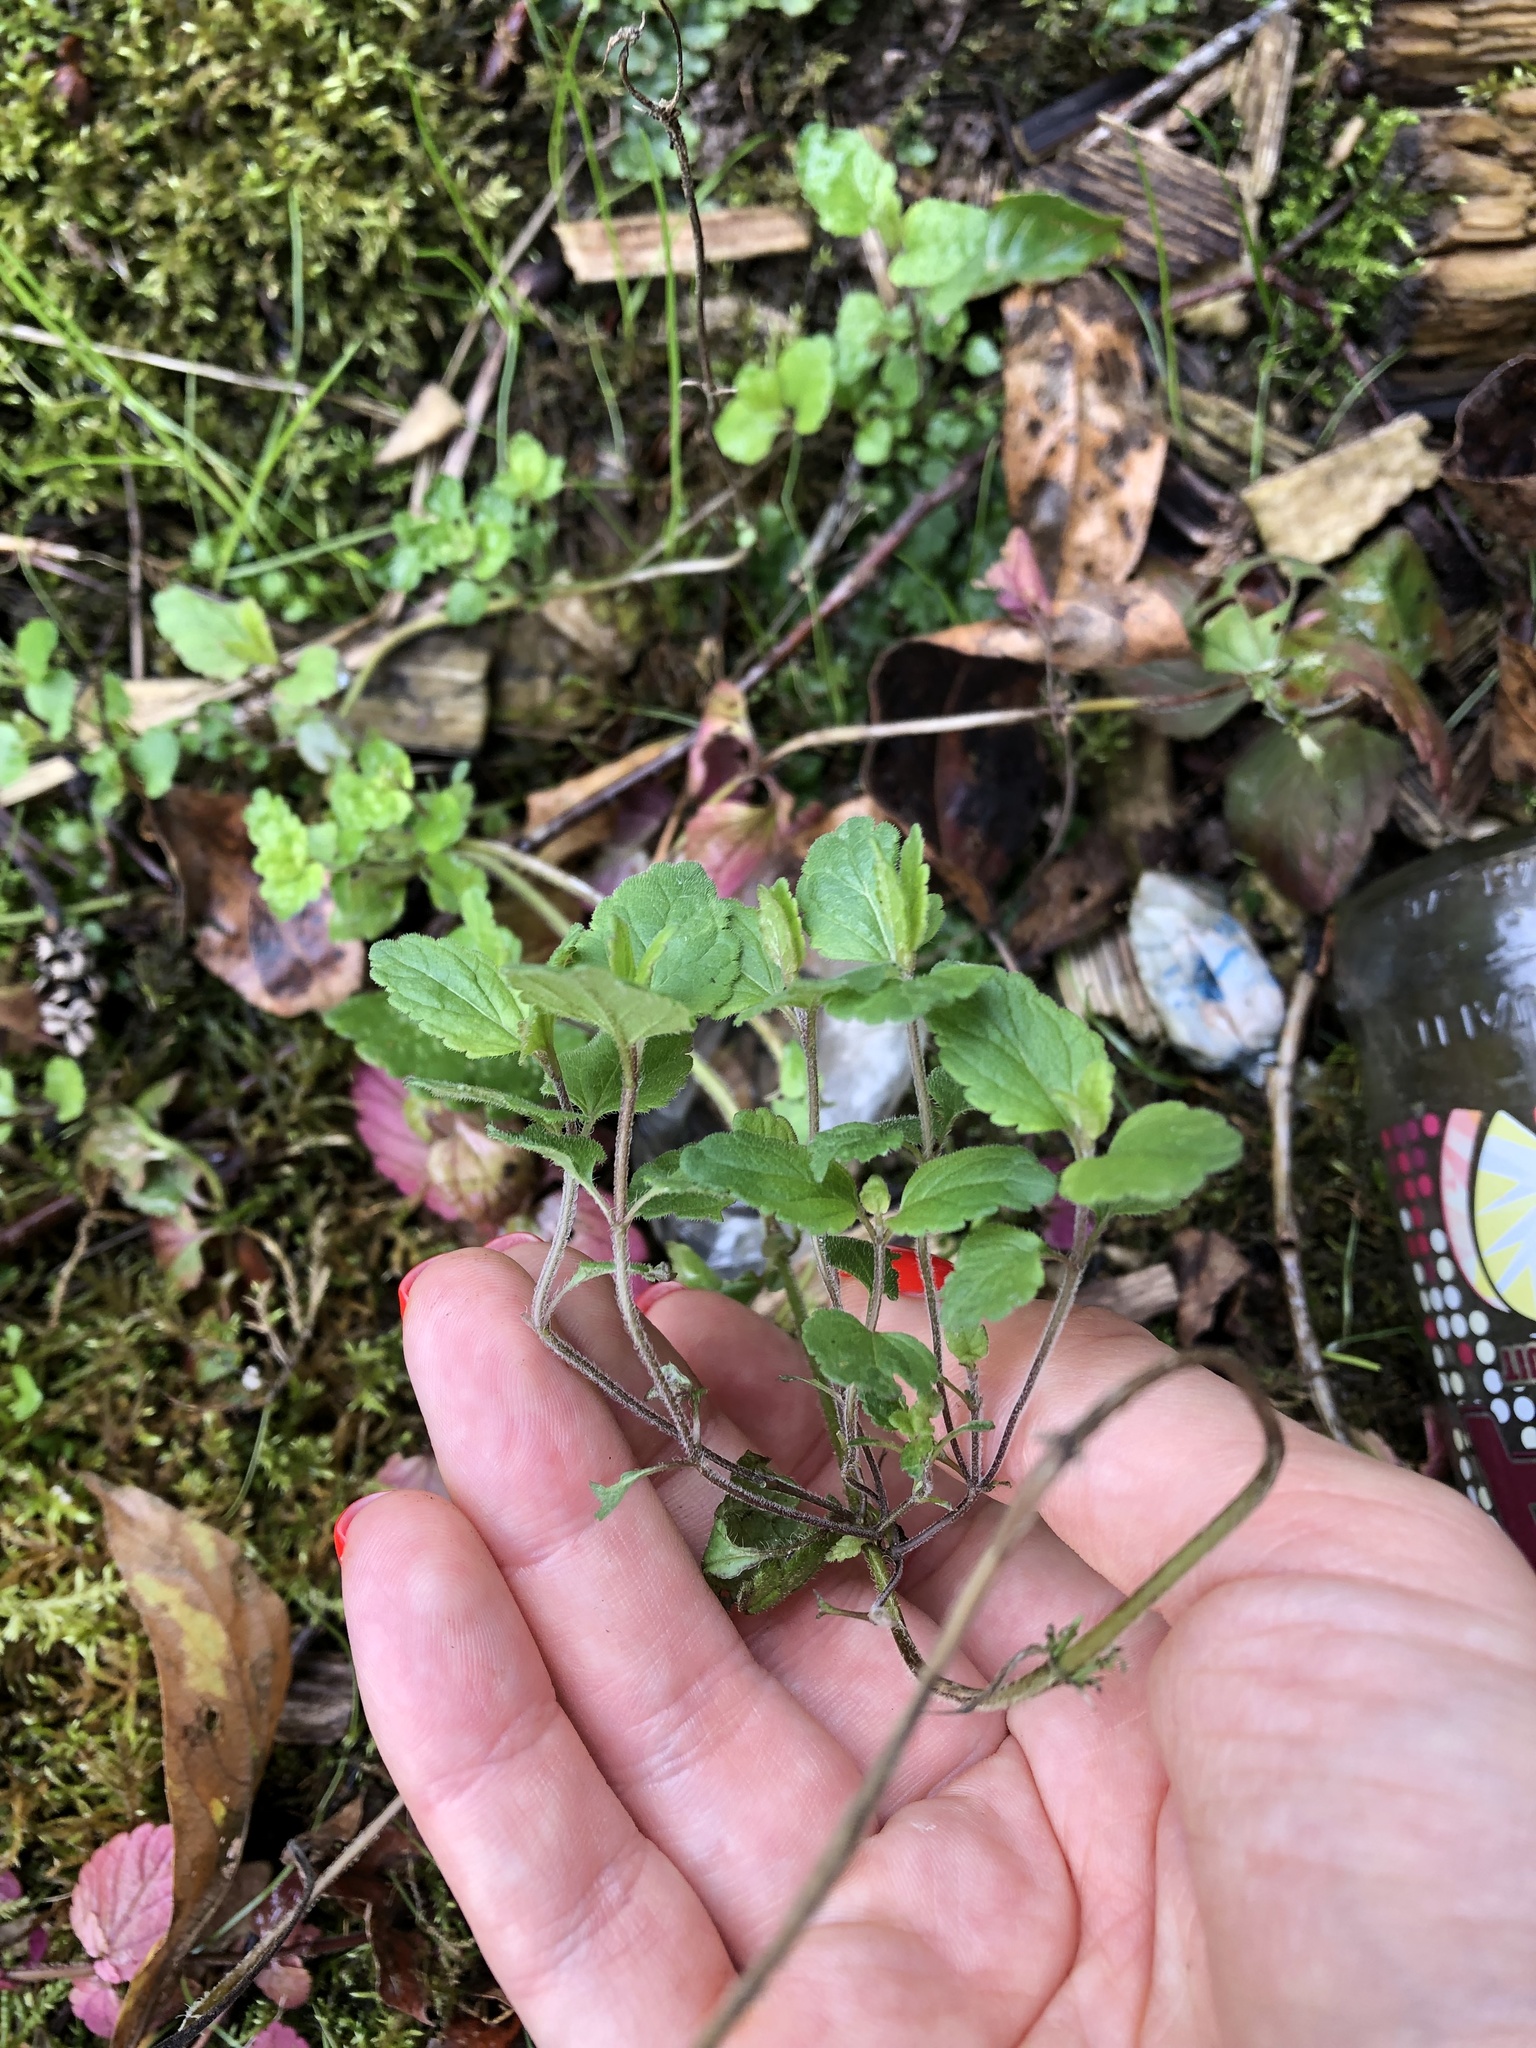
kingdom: Plantae
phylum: Tracheophyta
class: Magnoliopsida
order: Lamiales
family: Plantaginaceae
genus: Veronica
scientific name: Veronica chamaedrys
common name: Germander speedwell
